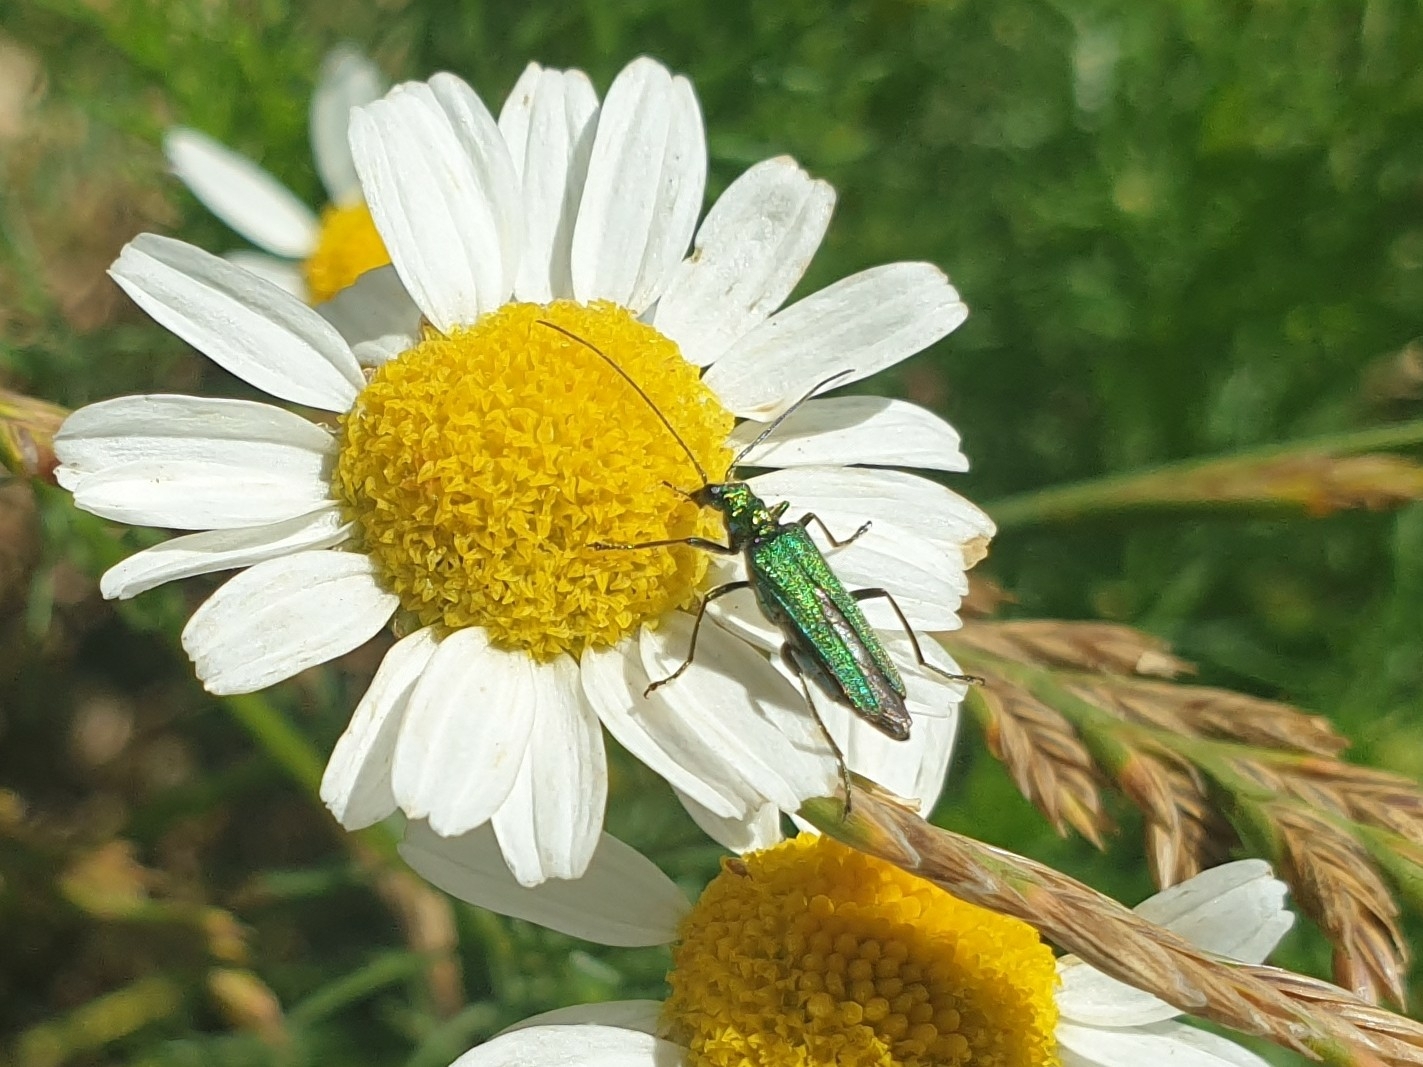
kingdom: Animalia
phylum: Arthropoda
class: Insecta
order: Coleoptera
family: Oedemeridae
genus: Oedemera
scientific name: Oedemera nobilis
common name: Swollen-thighed beetle
